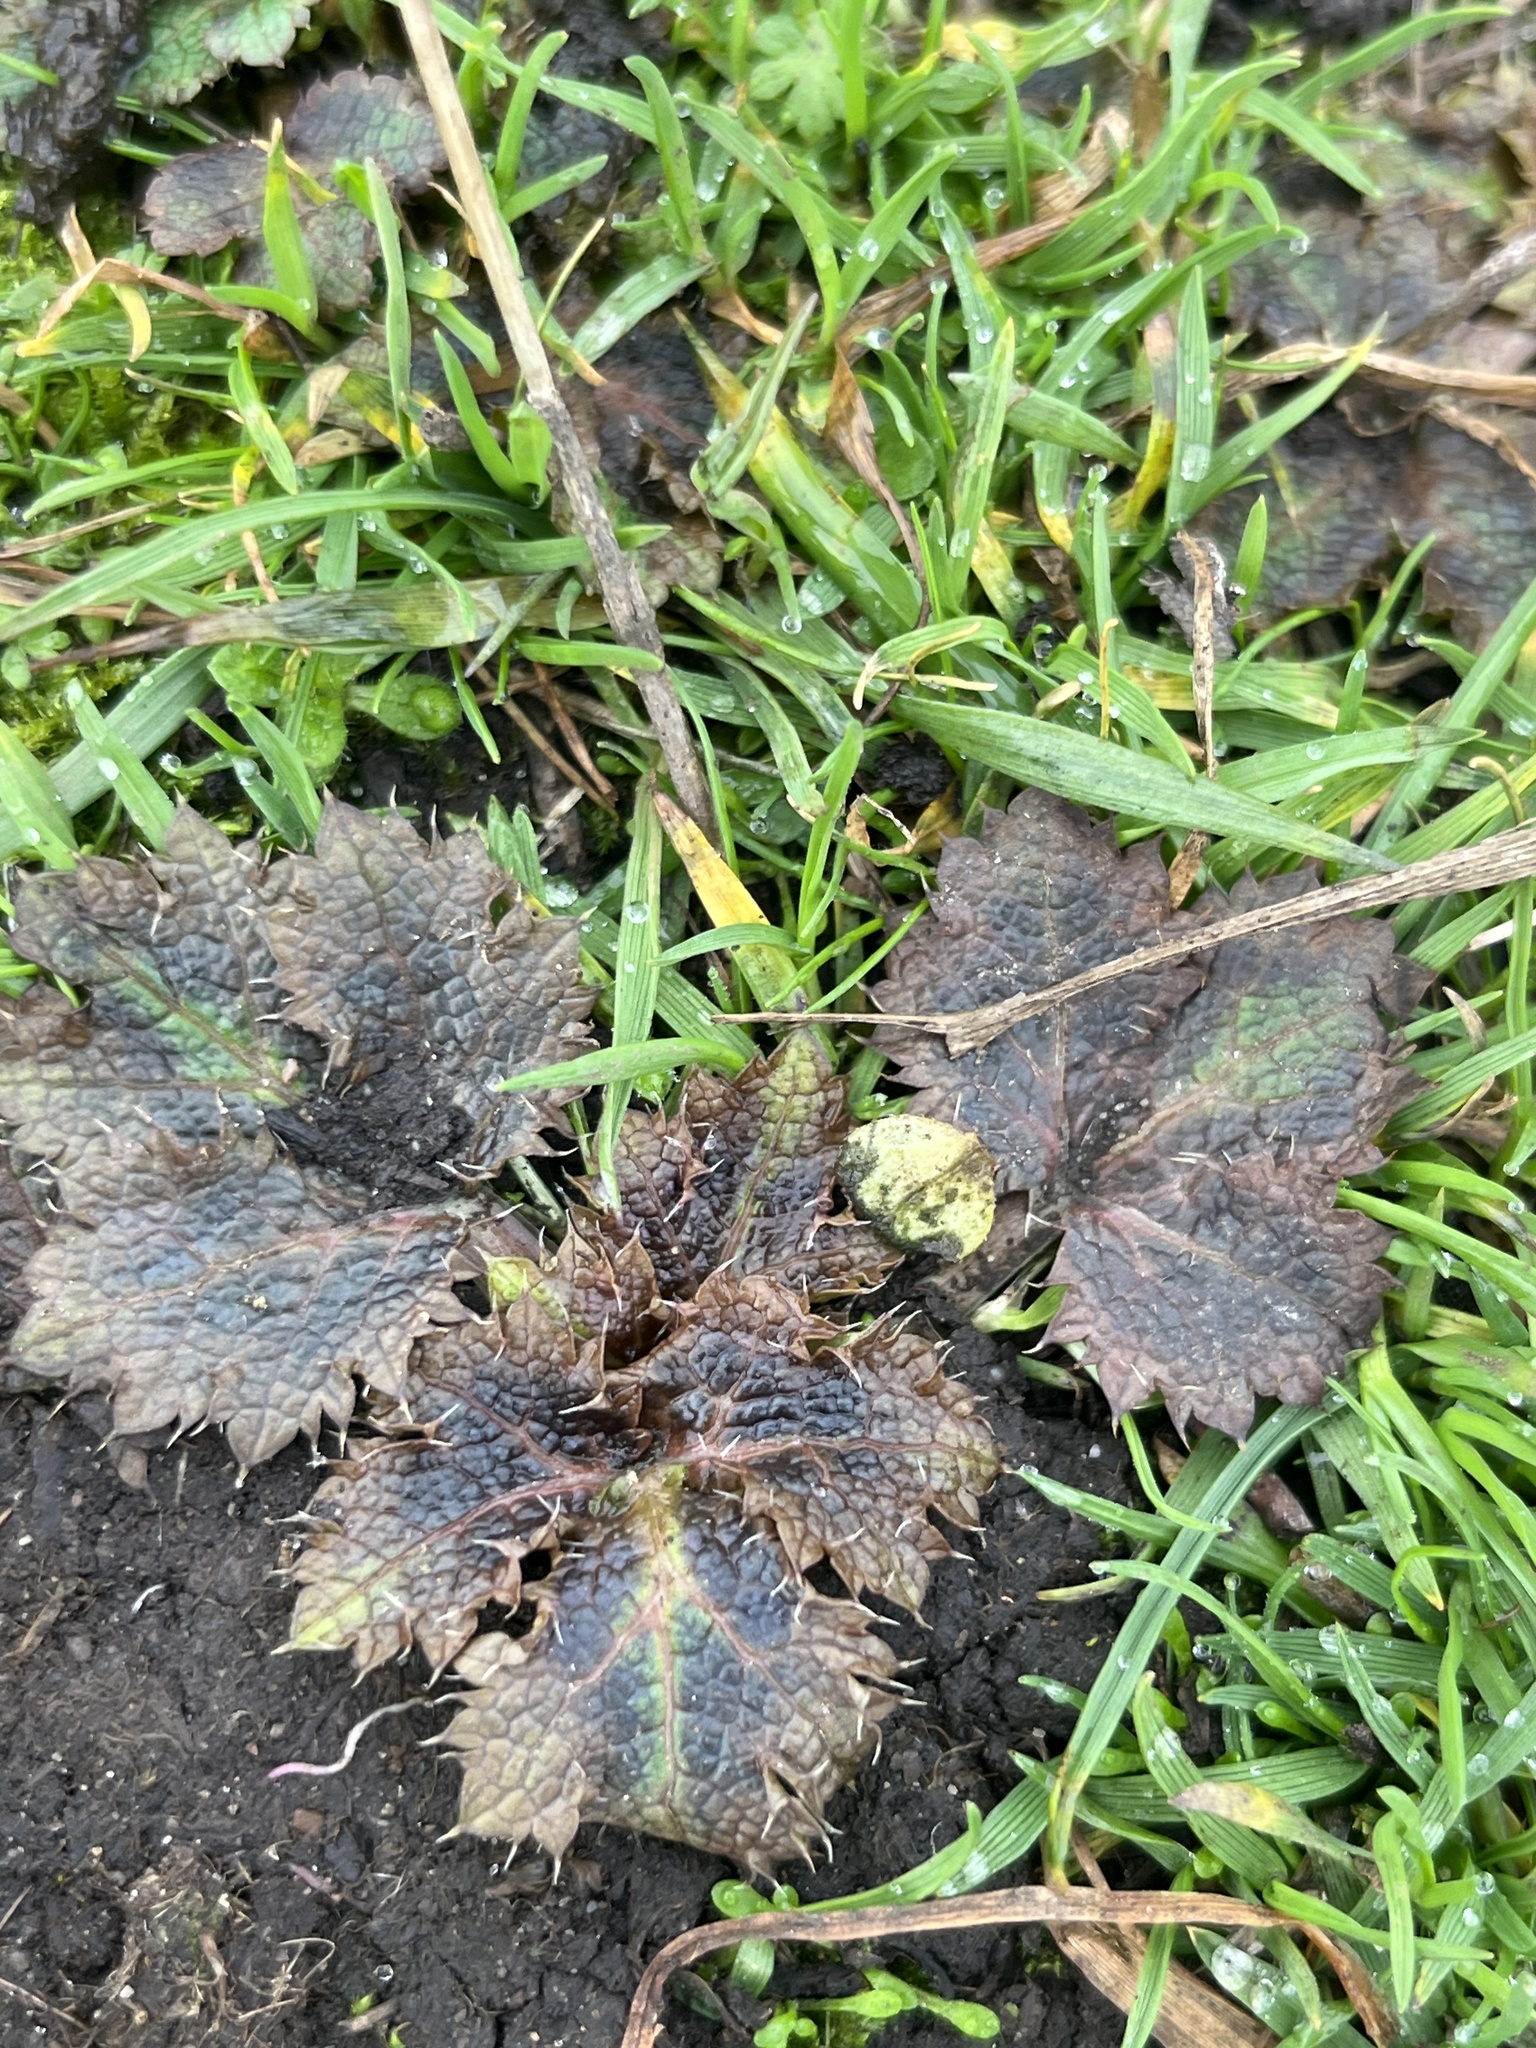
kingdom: Plantae
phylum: Tracheophyta
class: Magnoliopsida
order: Apiales
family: Apiaceae
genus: Sanicula
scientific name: Sanicula crassicaulis
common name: Western snakeroot
